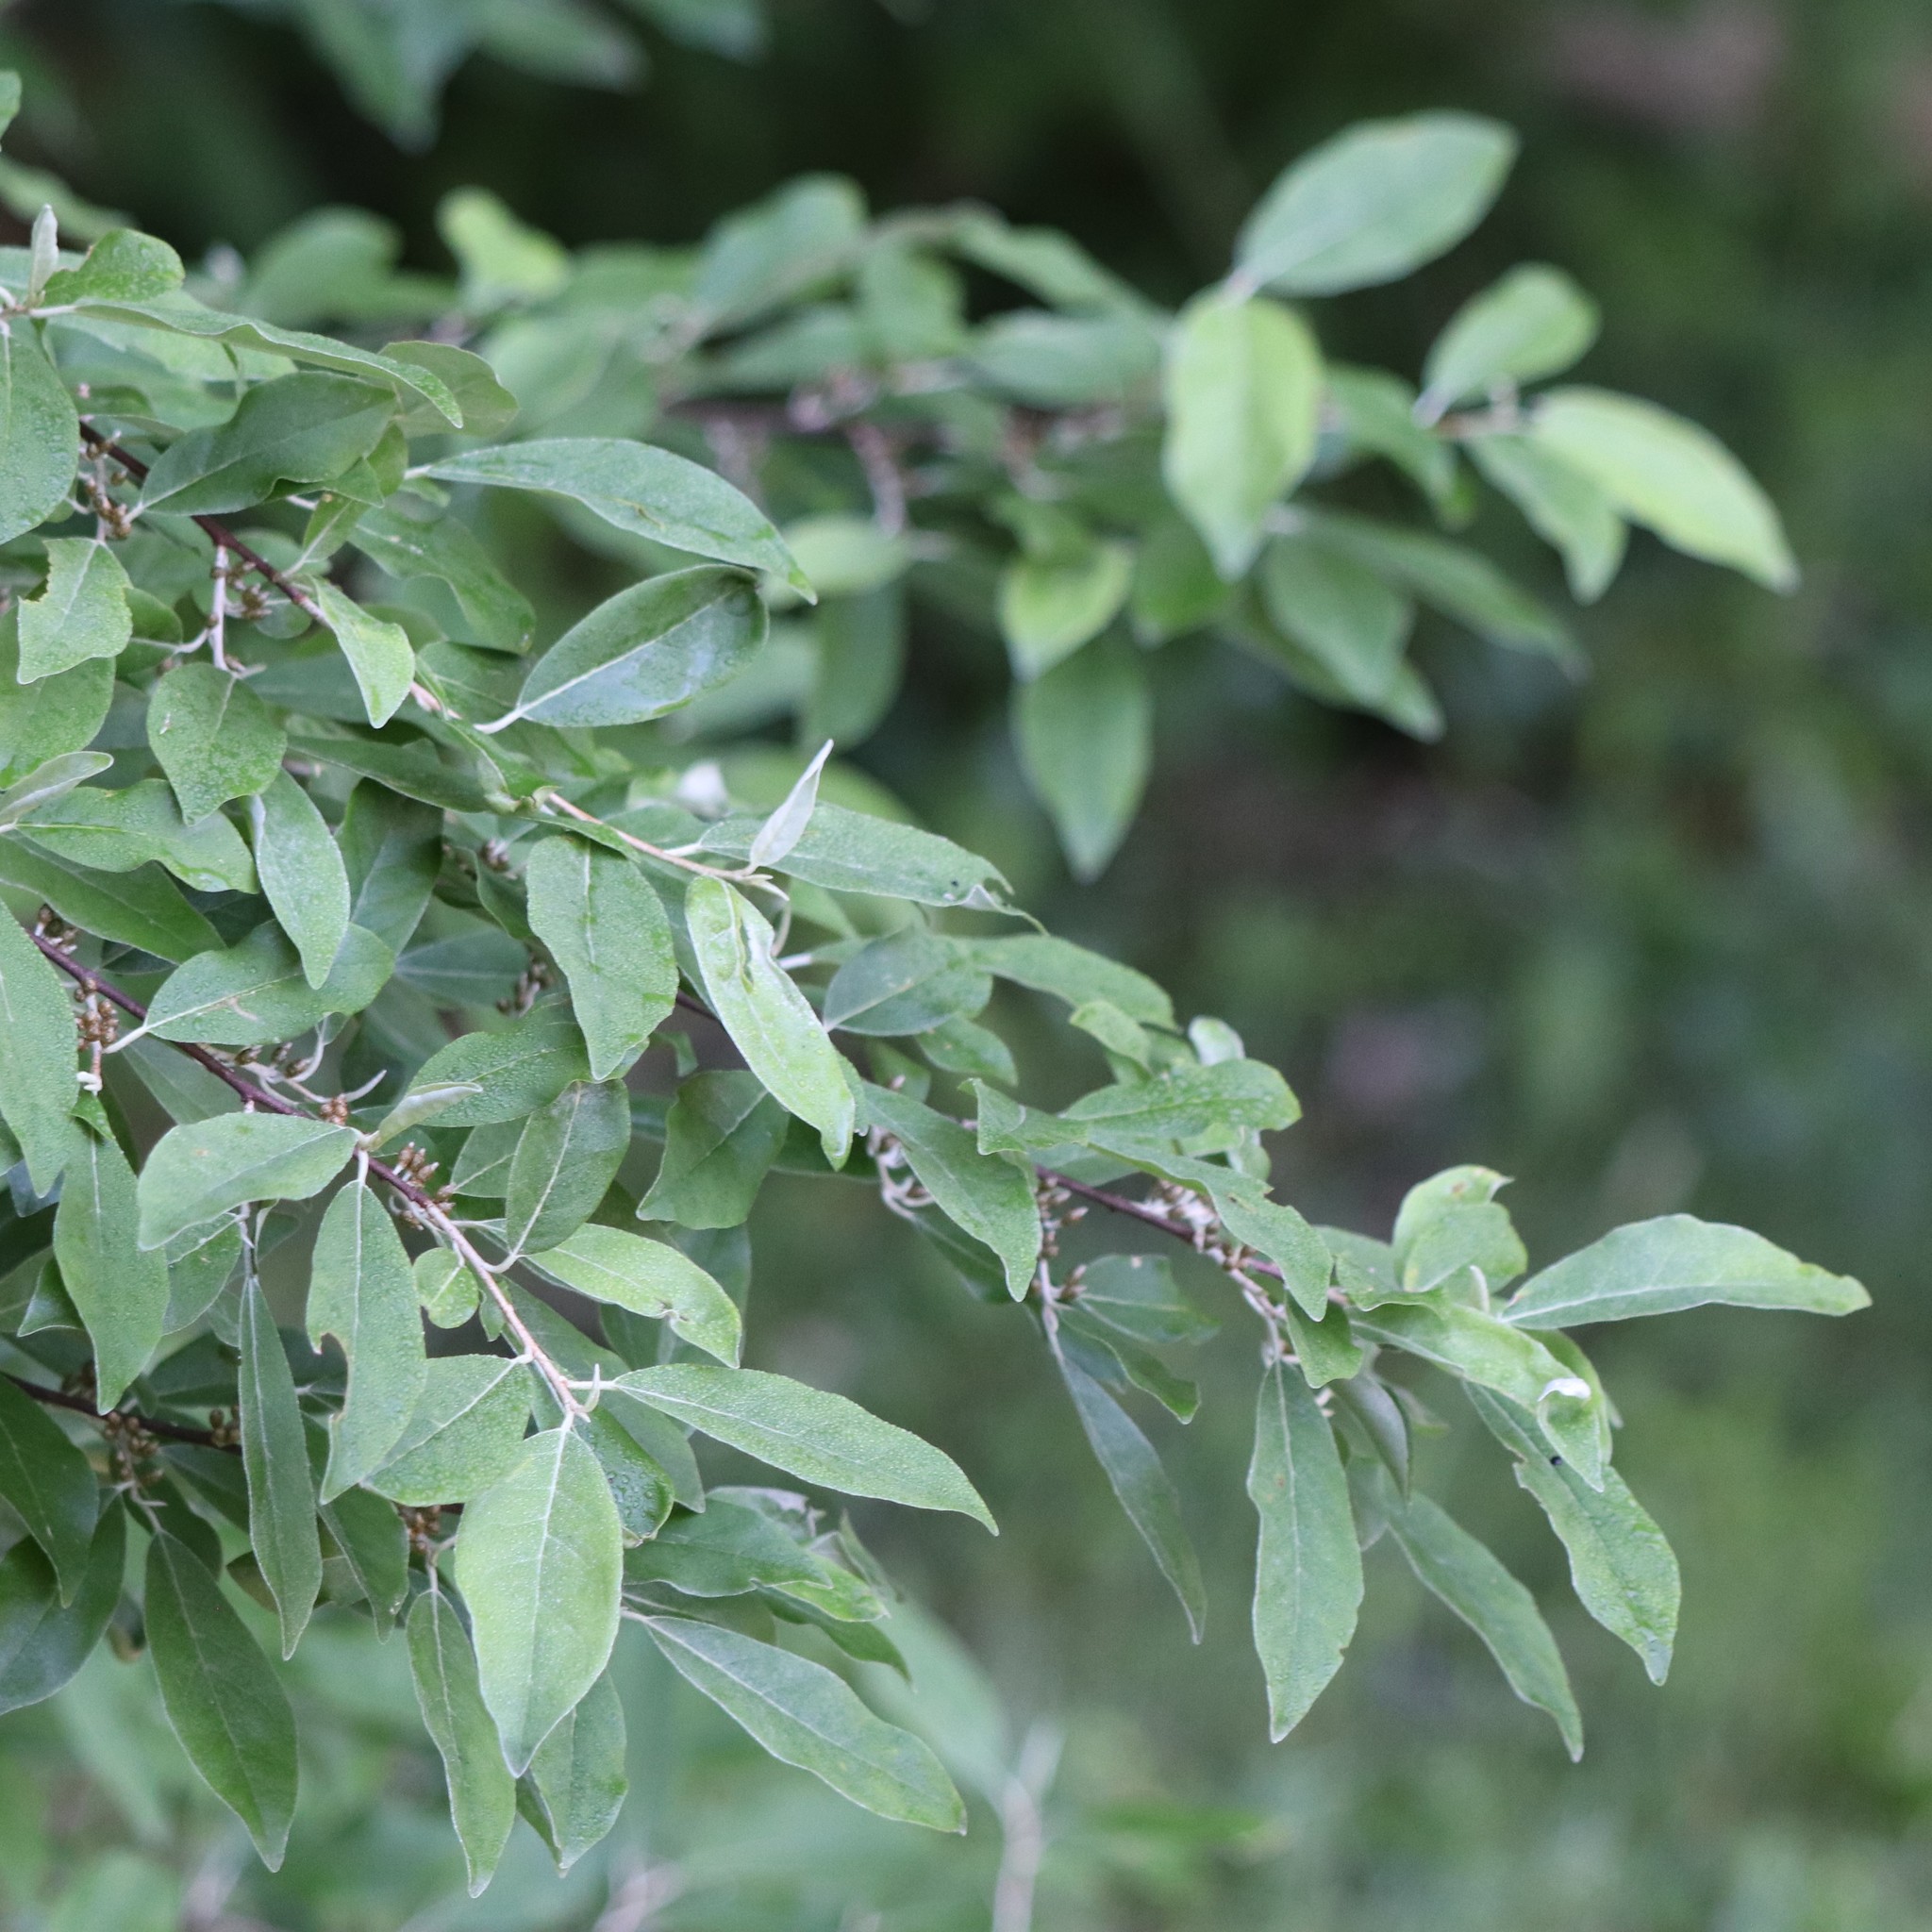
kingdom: Plantae
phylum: Tracheophyta
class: Magnoliopsida
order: Rosales
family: Elaeagnaceae
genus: Elaeagnus
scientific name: Elaeagnus umbellata
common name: Autumn olive
